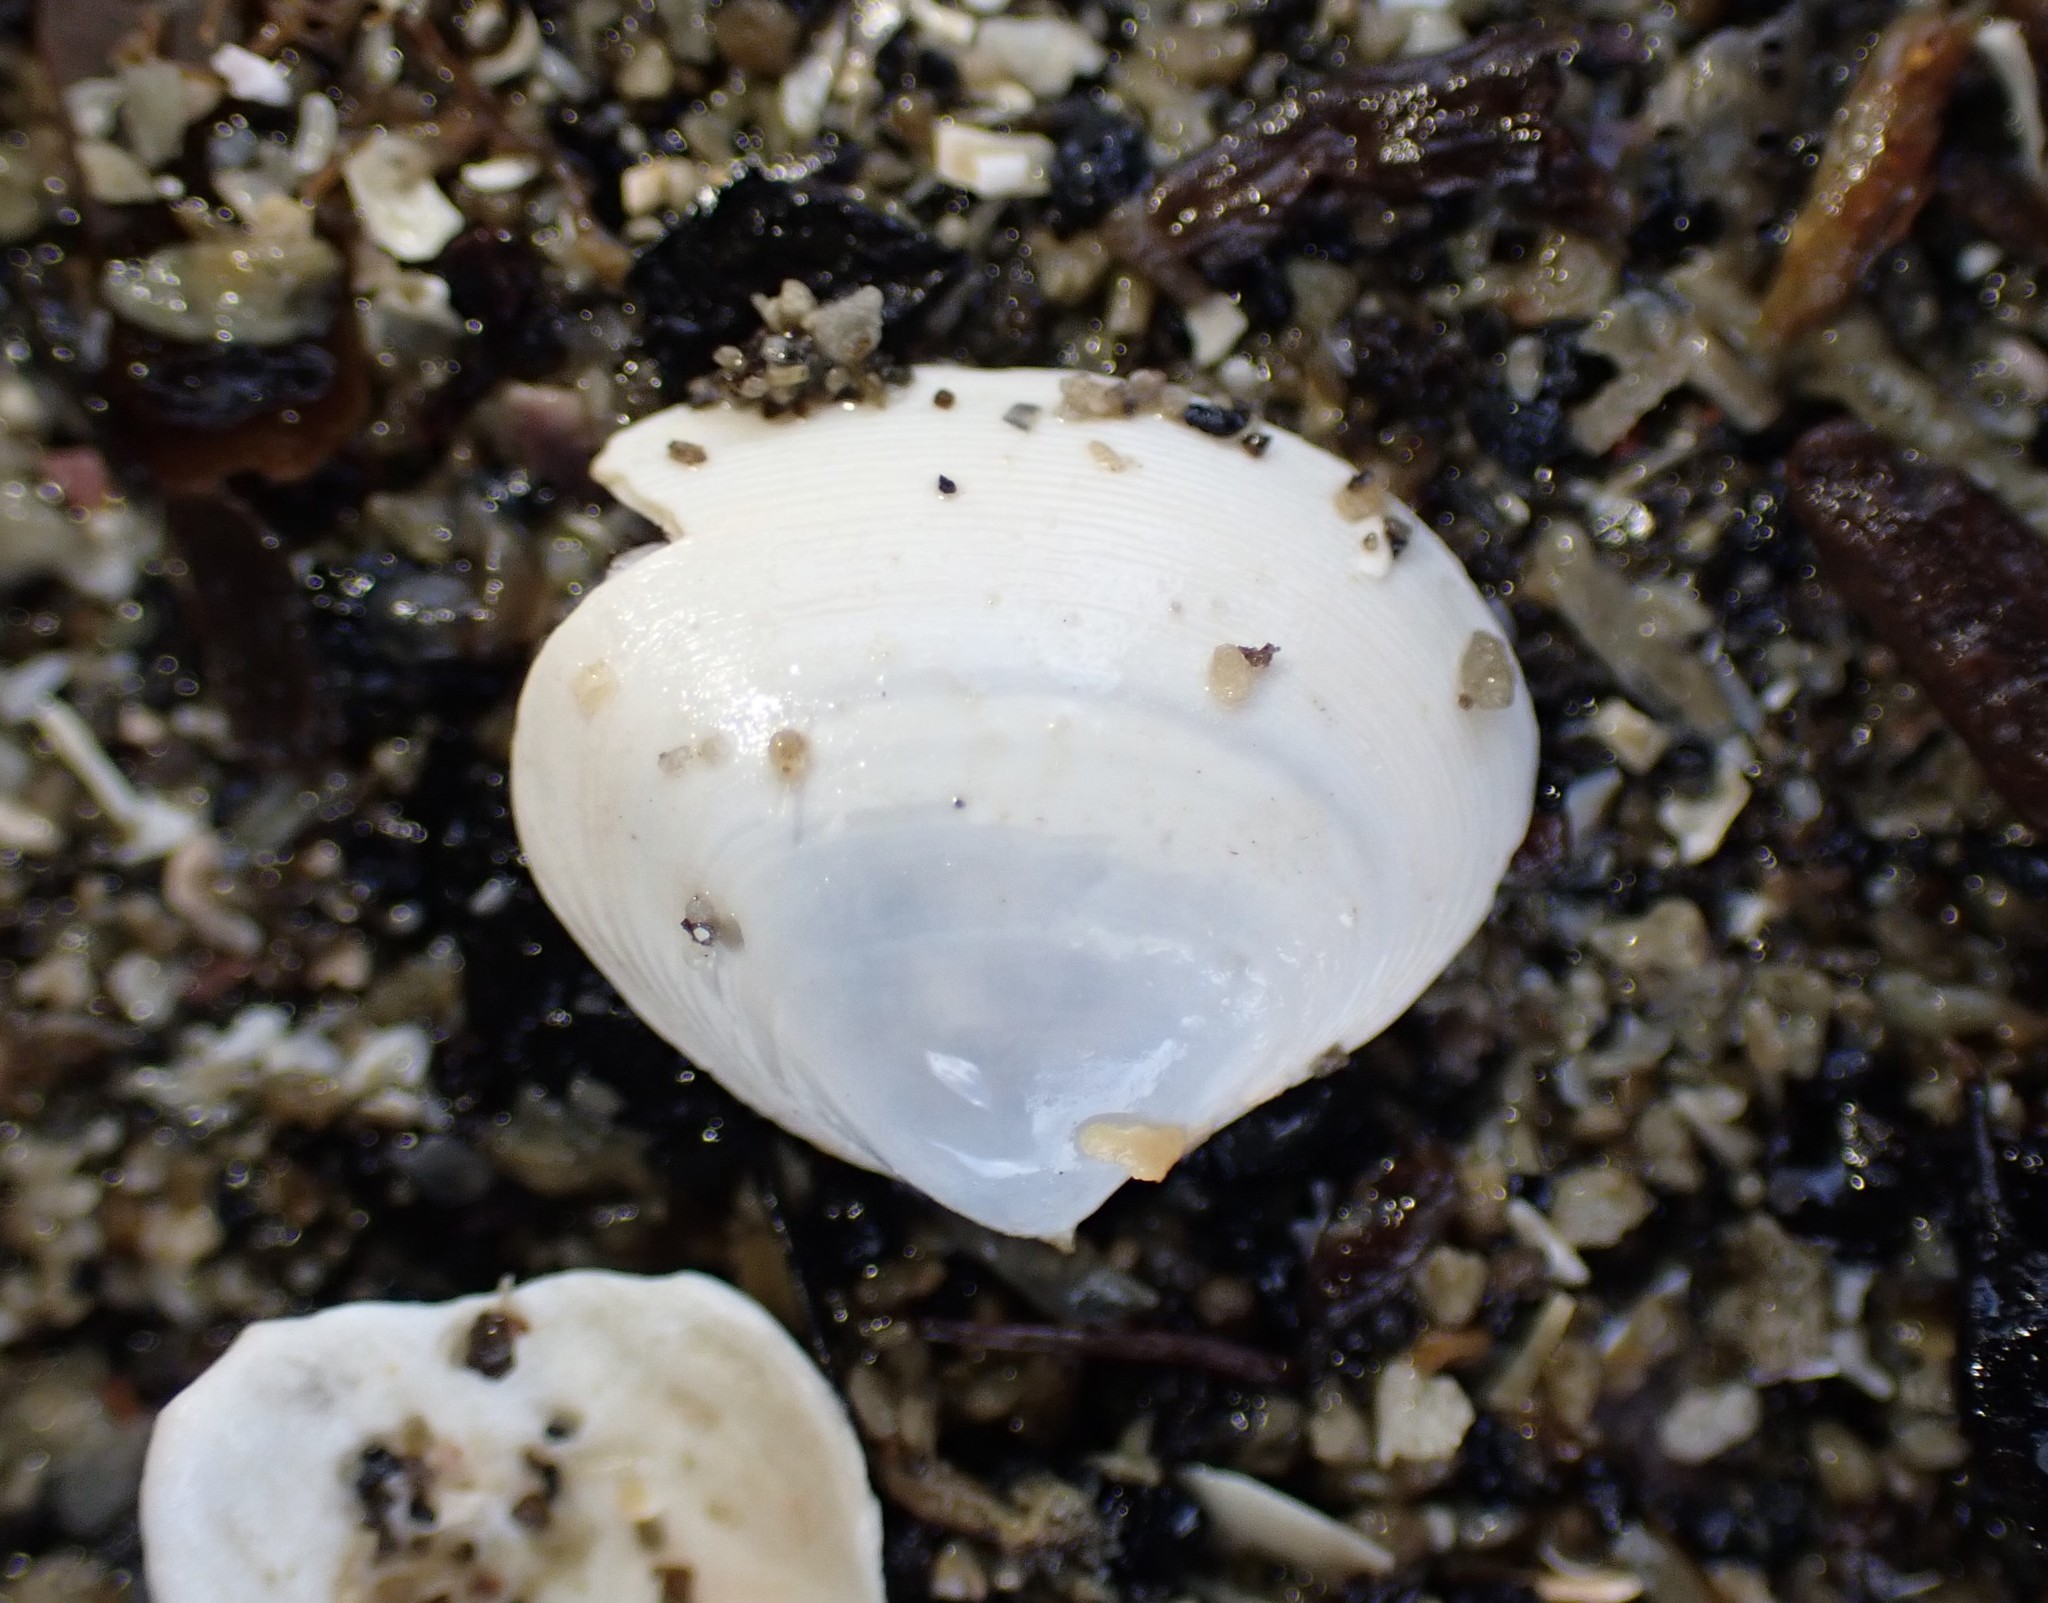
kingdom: Animalia
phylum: Mollusca
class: Bivalvia
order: Venerida
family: Mactridae
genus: Maorimactra
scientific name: Maorimactra ordinaria
